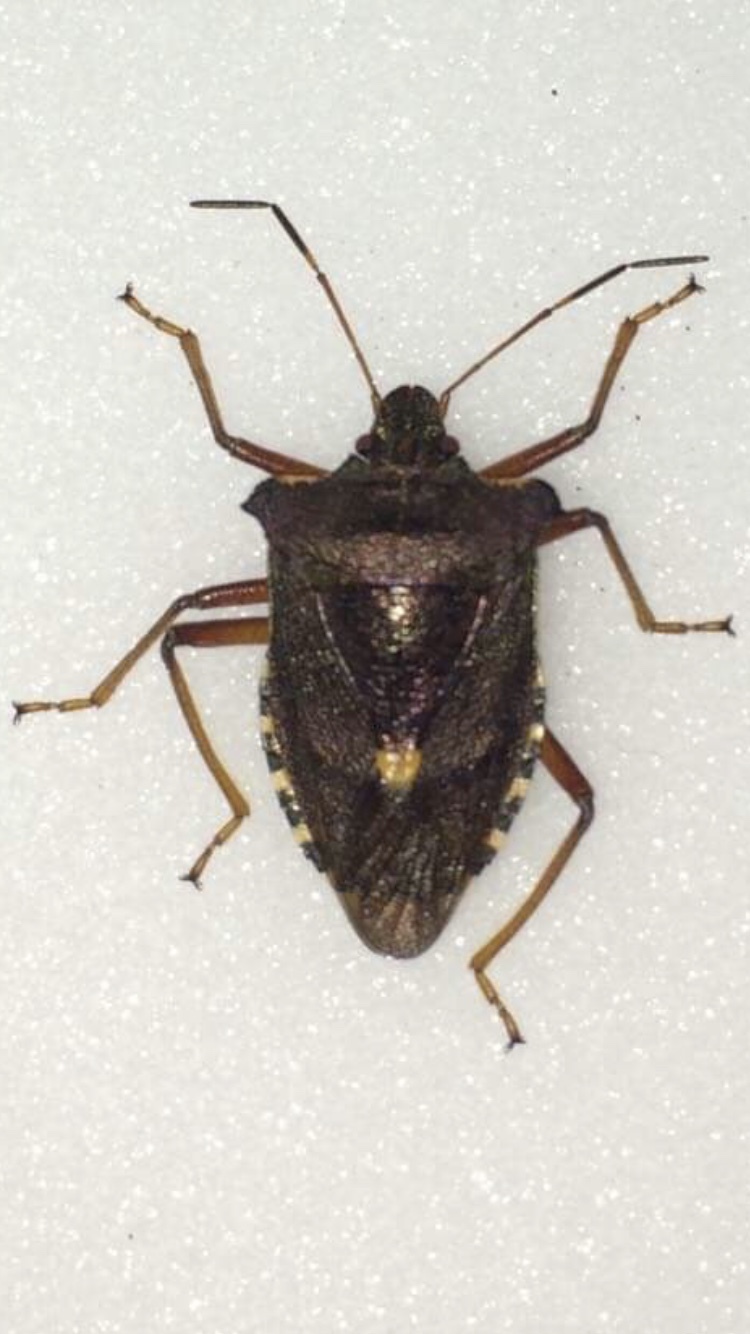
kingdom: Animalia
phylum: Arthropoda
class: Insecta
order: Hemiptera
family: Pentatomidae
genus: Pentatoma
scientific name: Pentatoma rufipes
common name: Forest bug
